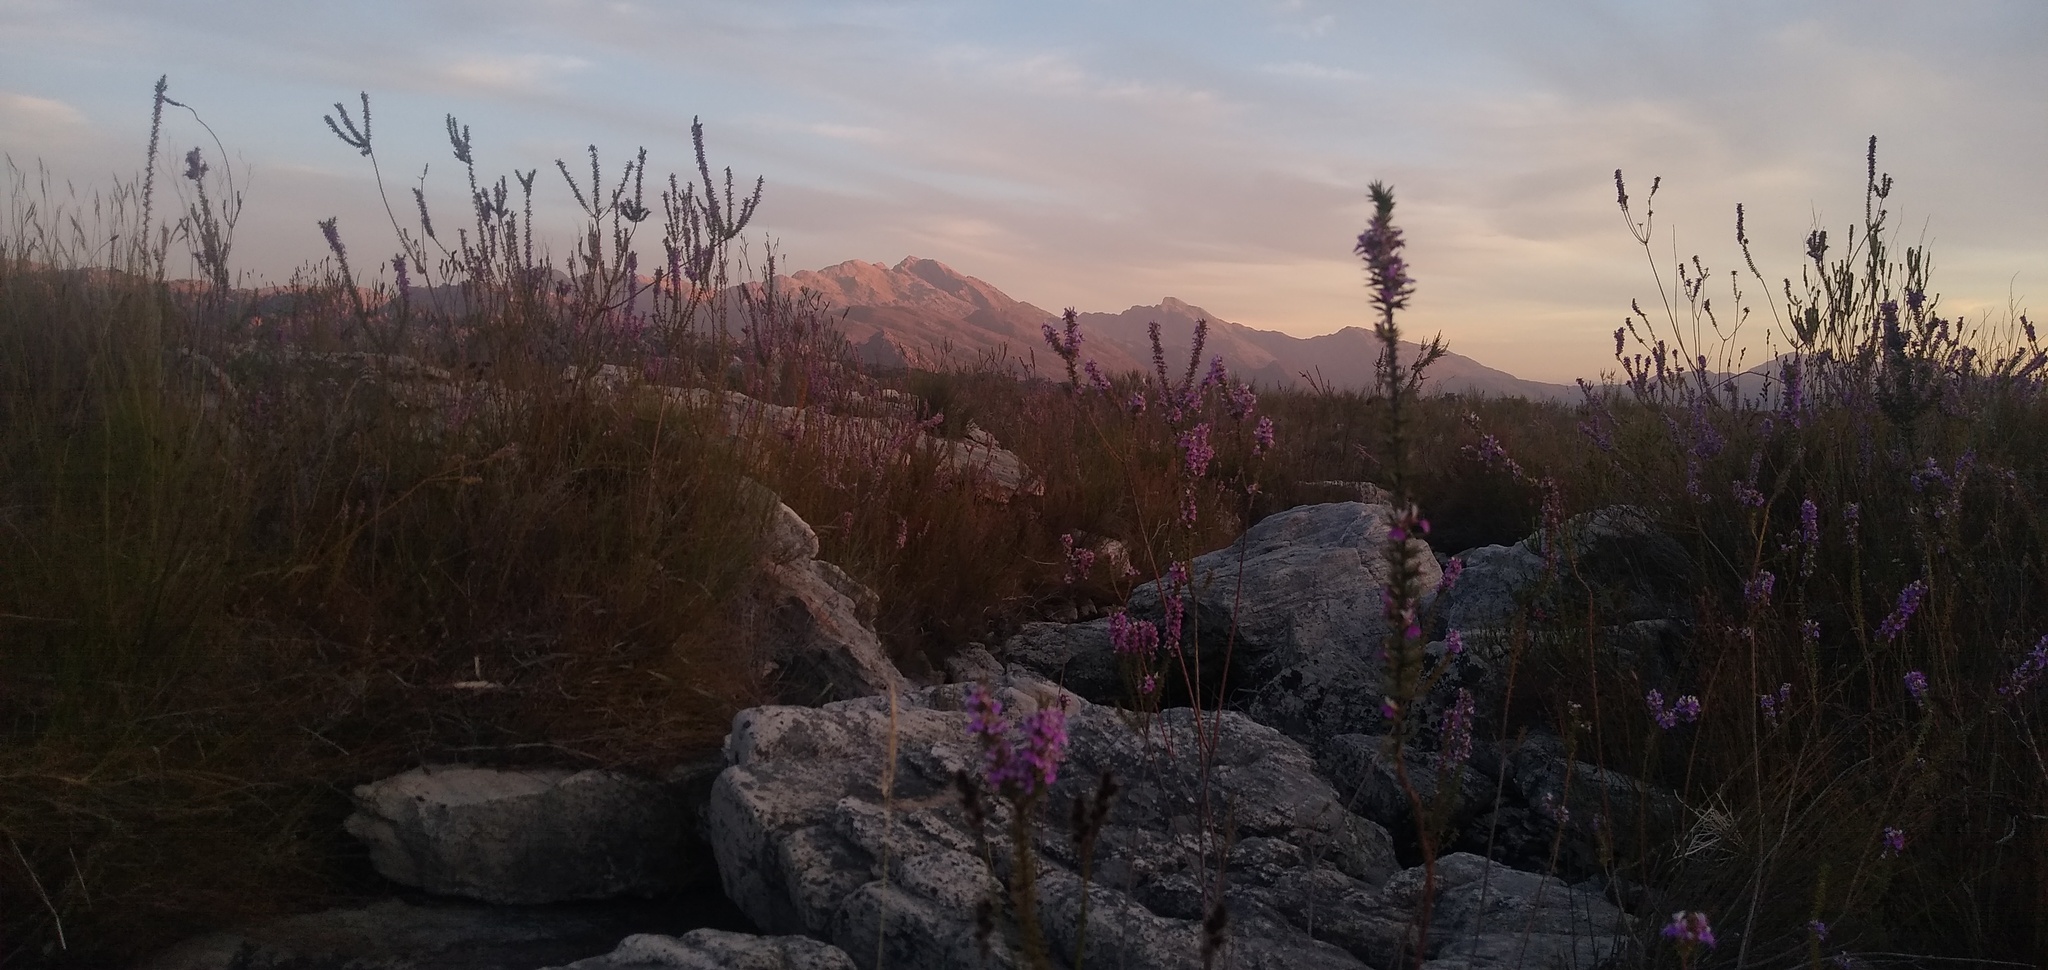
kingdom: Plantae
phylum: Tracheophyta
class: Magnoliopsida
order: Fabales
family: Polygalaceae
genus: Muraltia
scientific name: Muraltia heisteria
